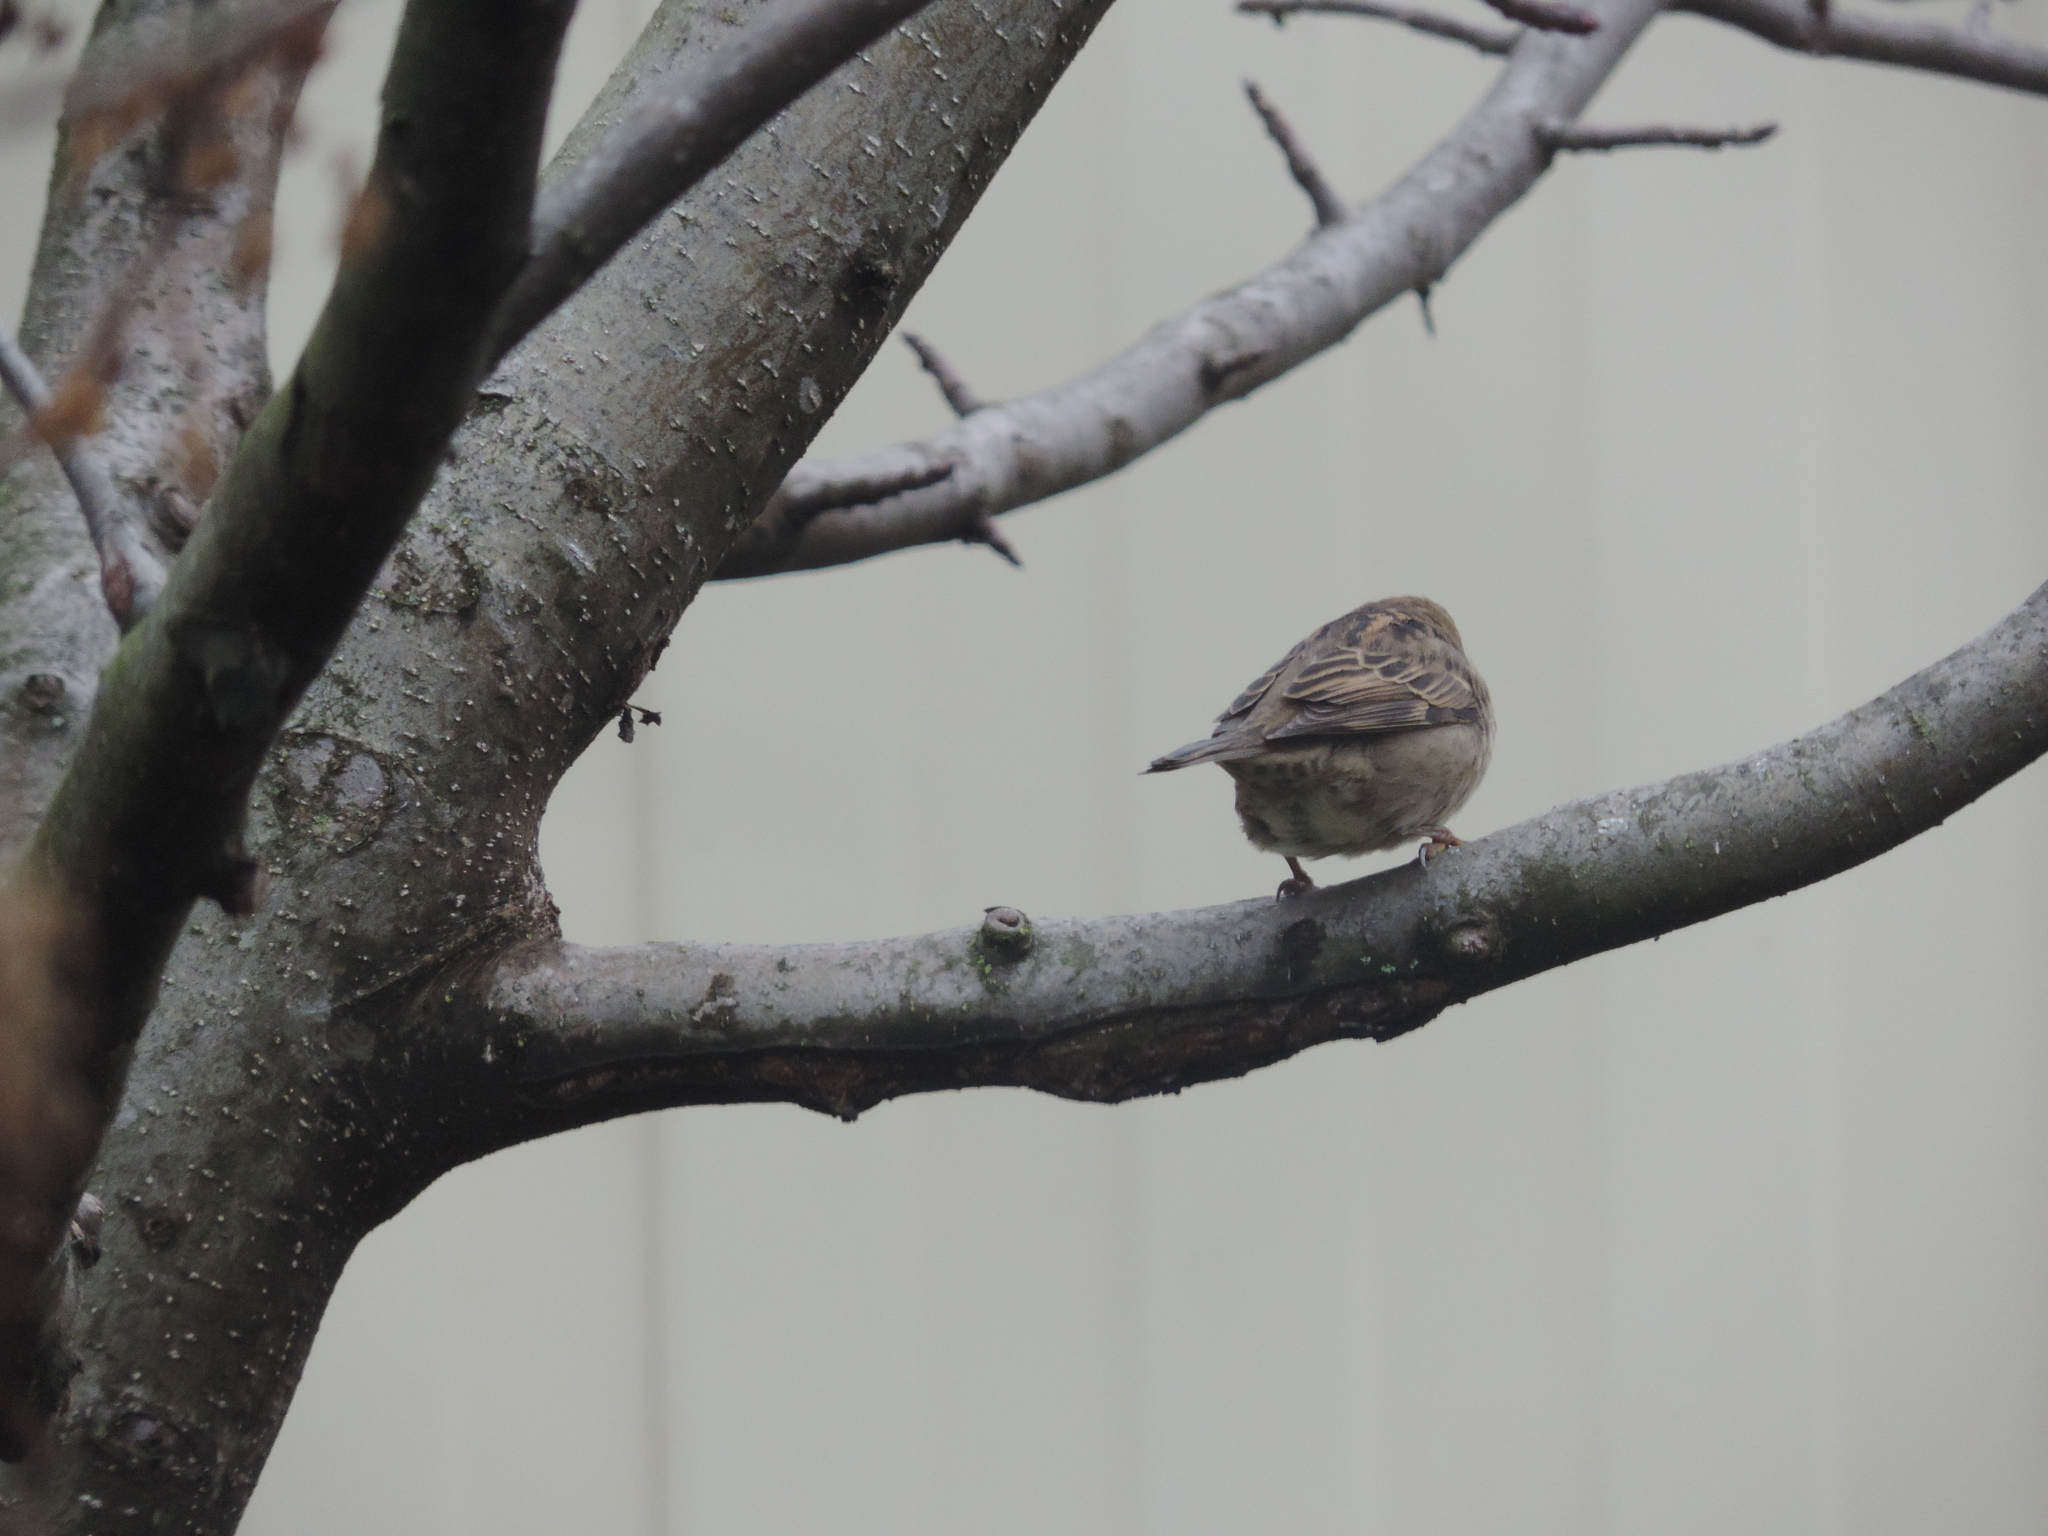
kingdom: Animalia
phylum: Chordata
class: Aves
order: Passeriformes
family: Passeridae
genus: Passer
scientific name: Passer domesticus
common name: House sparrow
